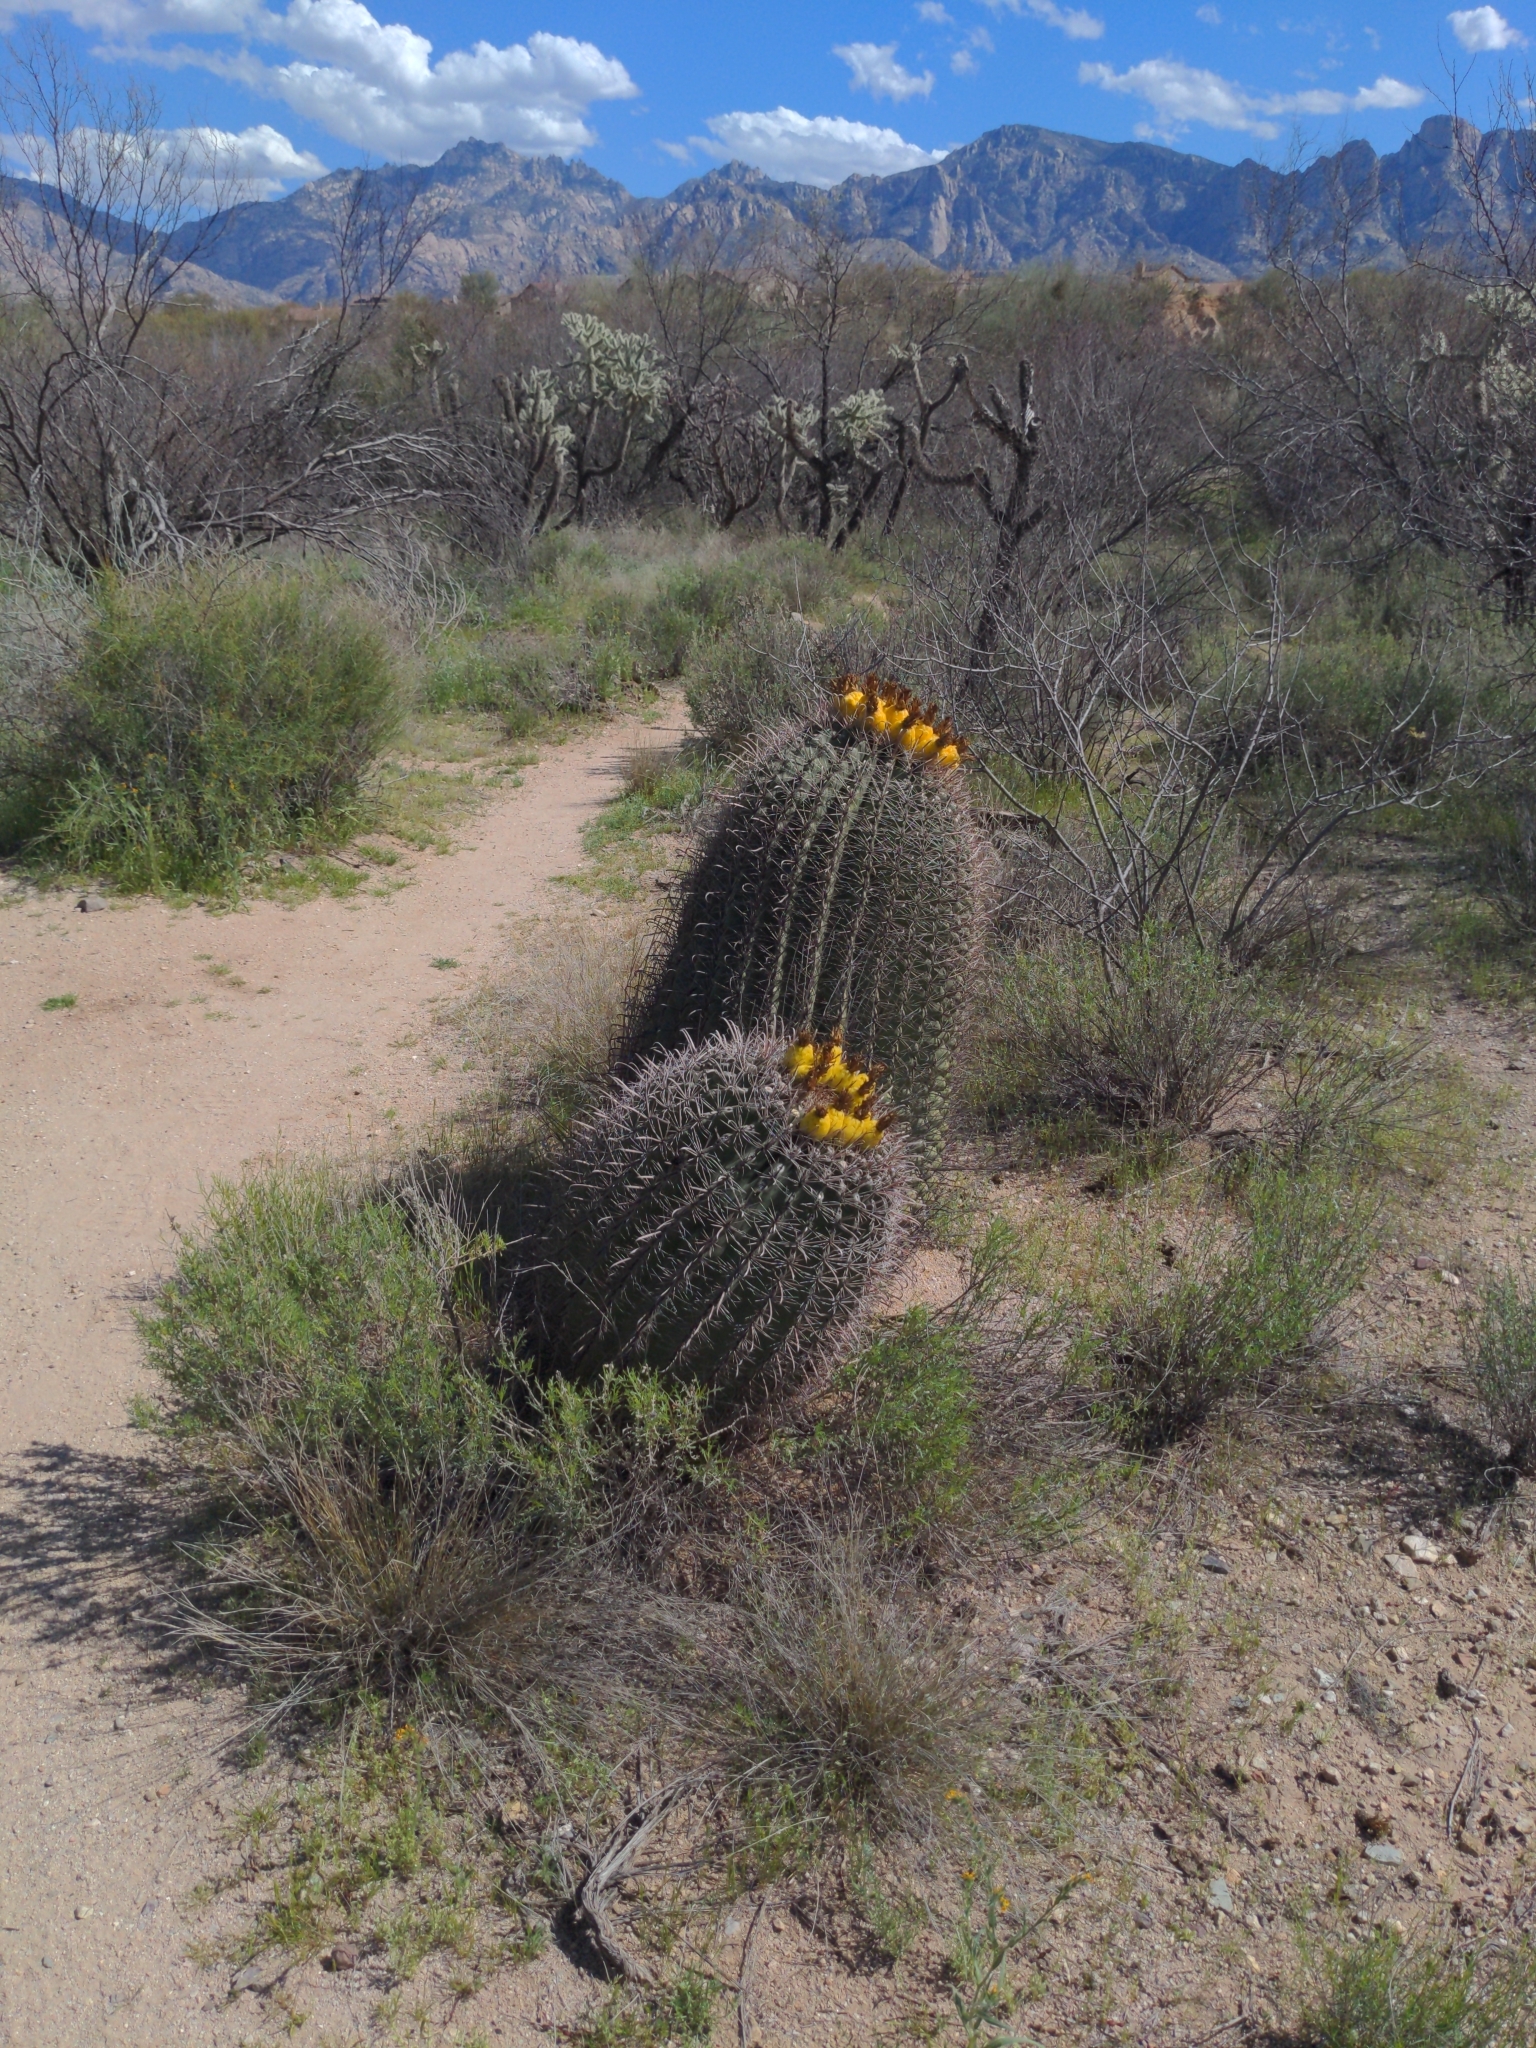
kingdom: Plantae
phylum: Tracheophyta
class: Magnoliopsida
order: Caryophyllales
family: Cactaceae
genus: Ferocactus
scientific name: Ferocactus wislizeni
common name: Candy barrel cactus
